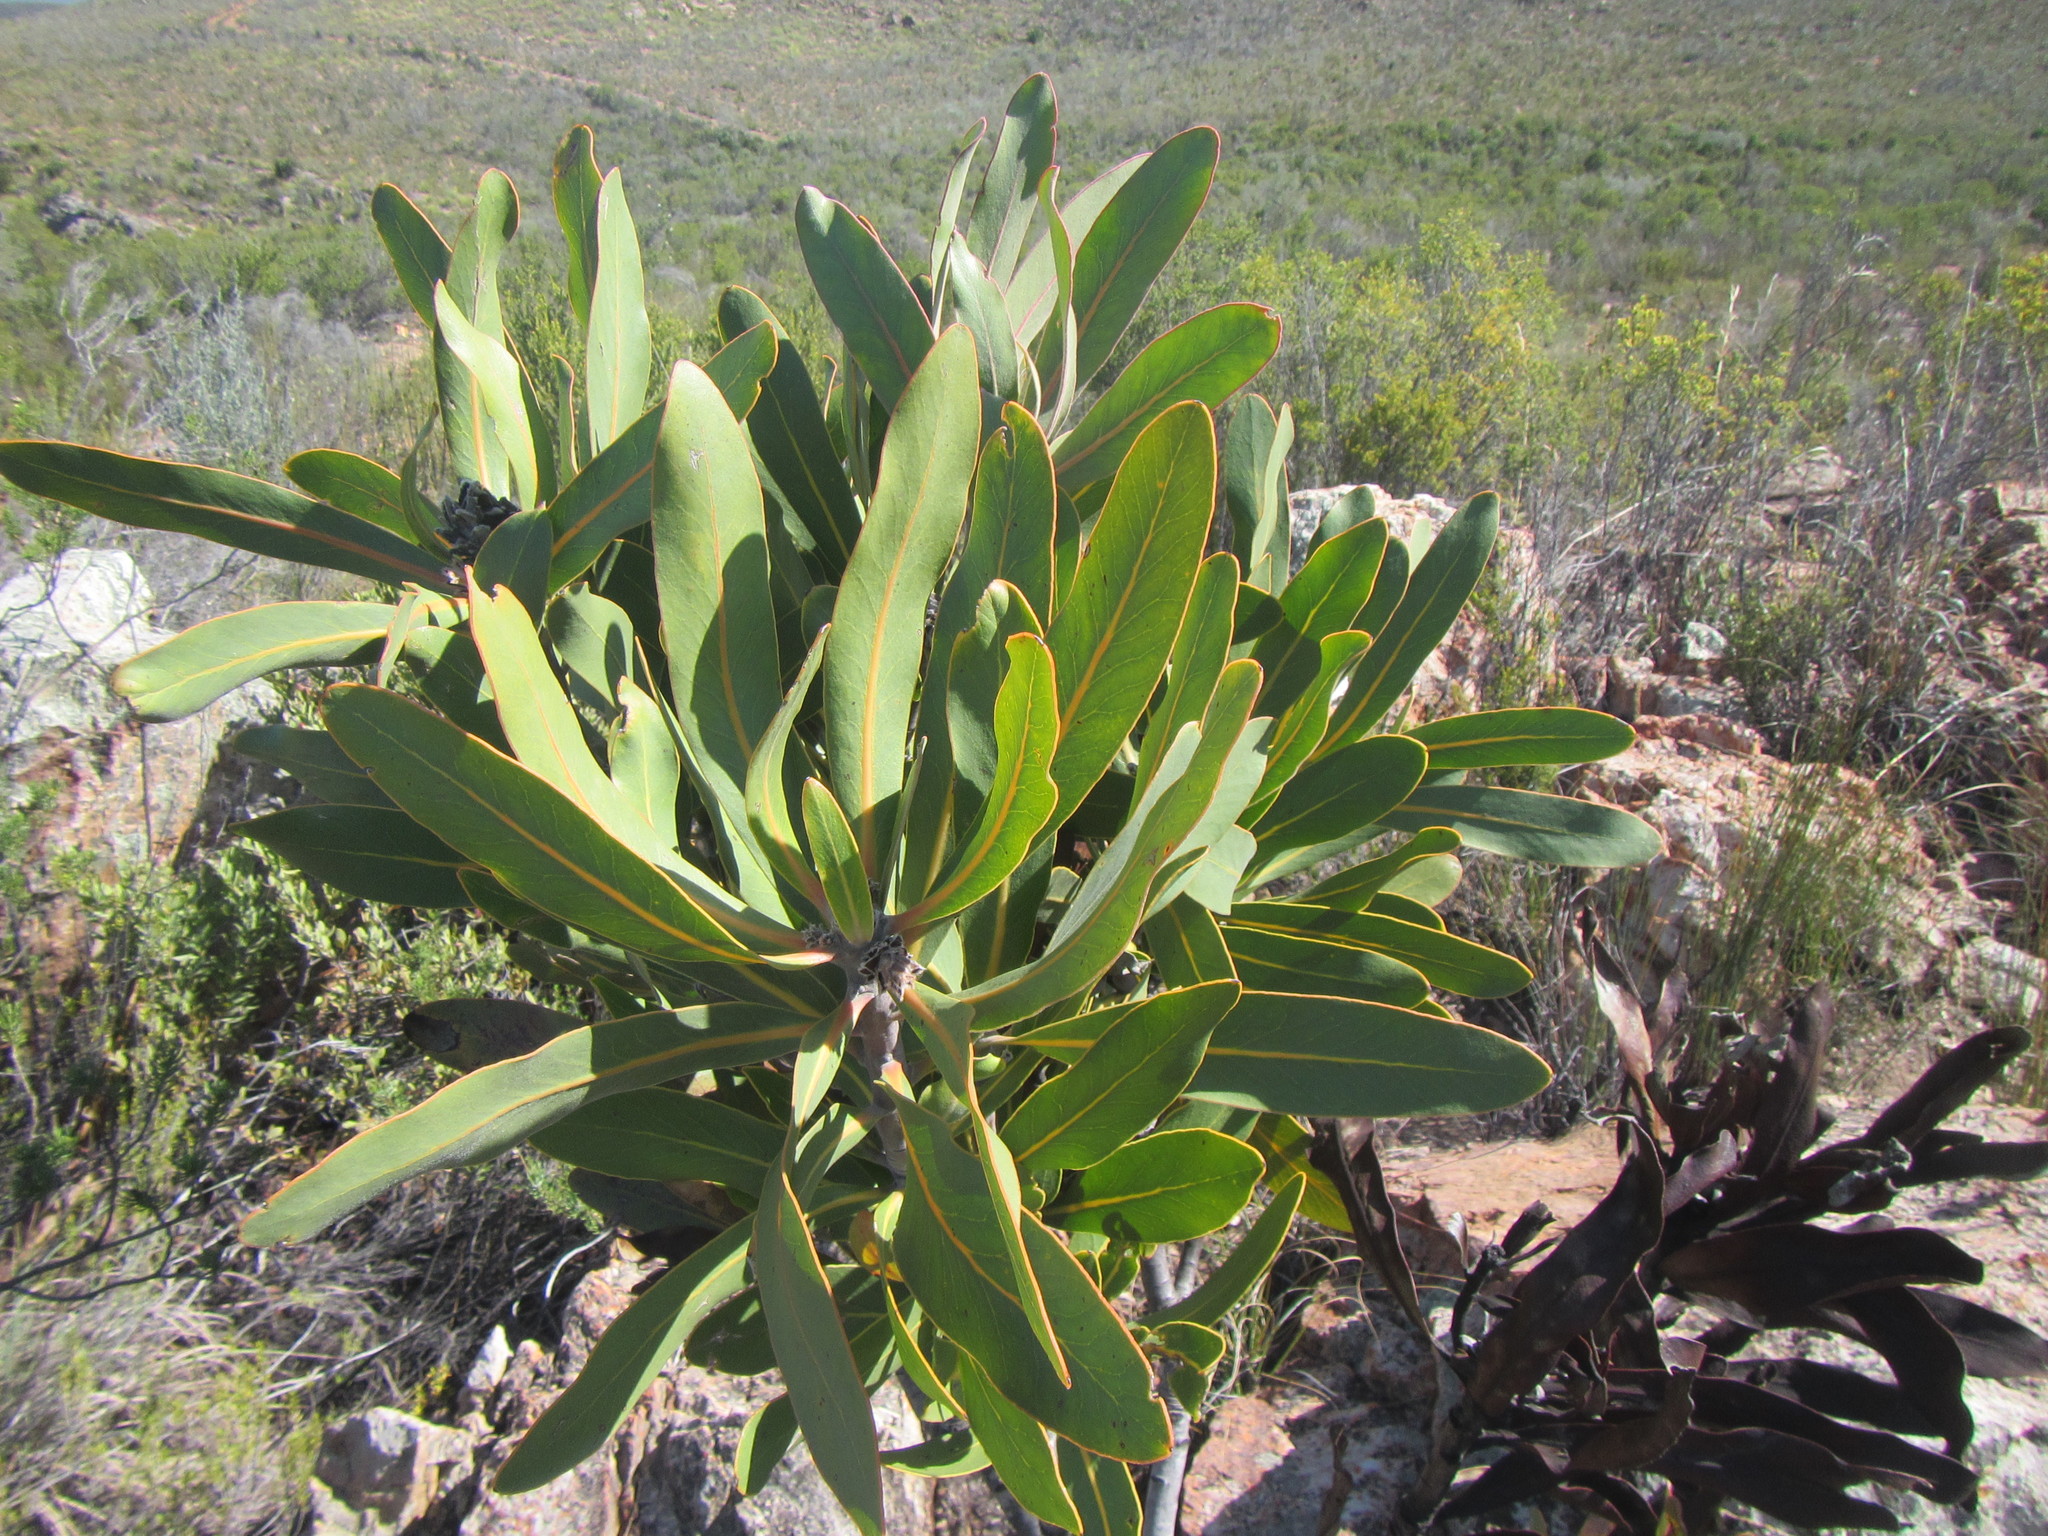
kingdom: Plantae
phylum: Tracheophyta
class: Magnoliopsida
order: Proteales
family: Proteaceae
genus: Protea
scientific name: Protea lorifolia
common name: Strap-leaved protea
